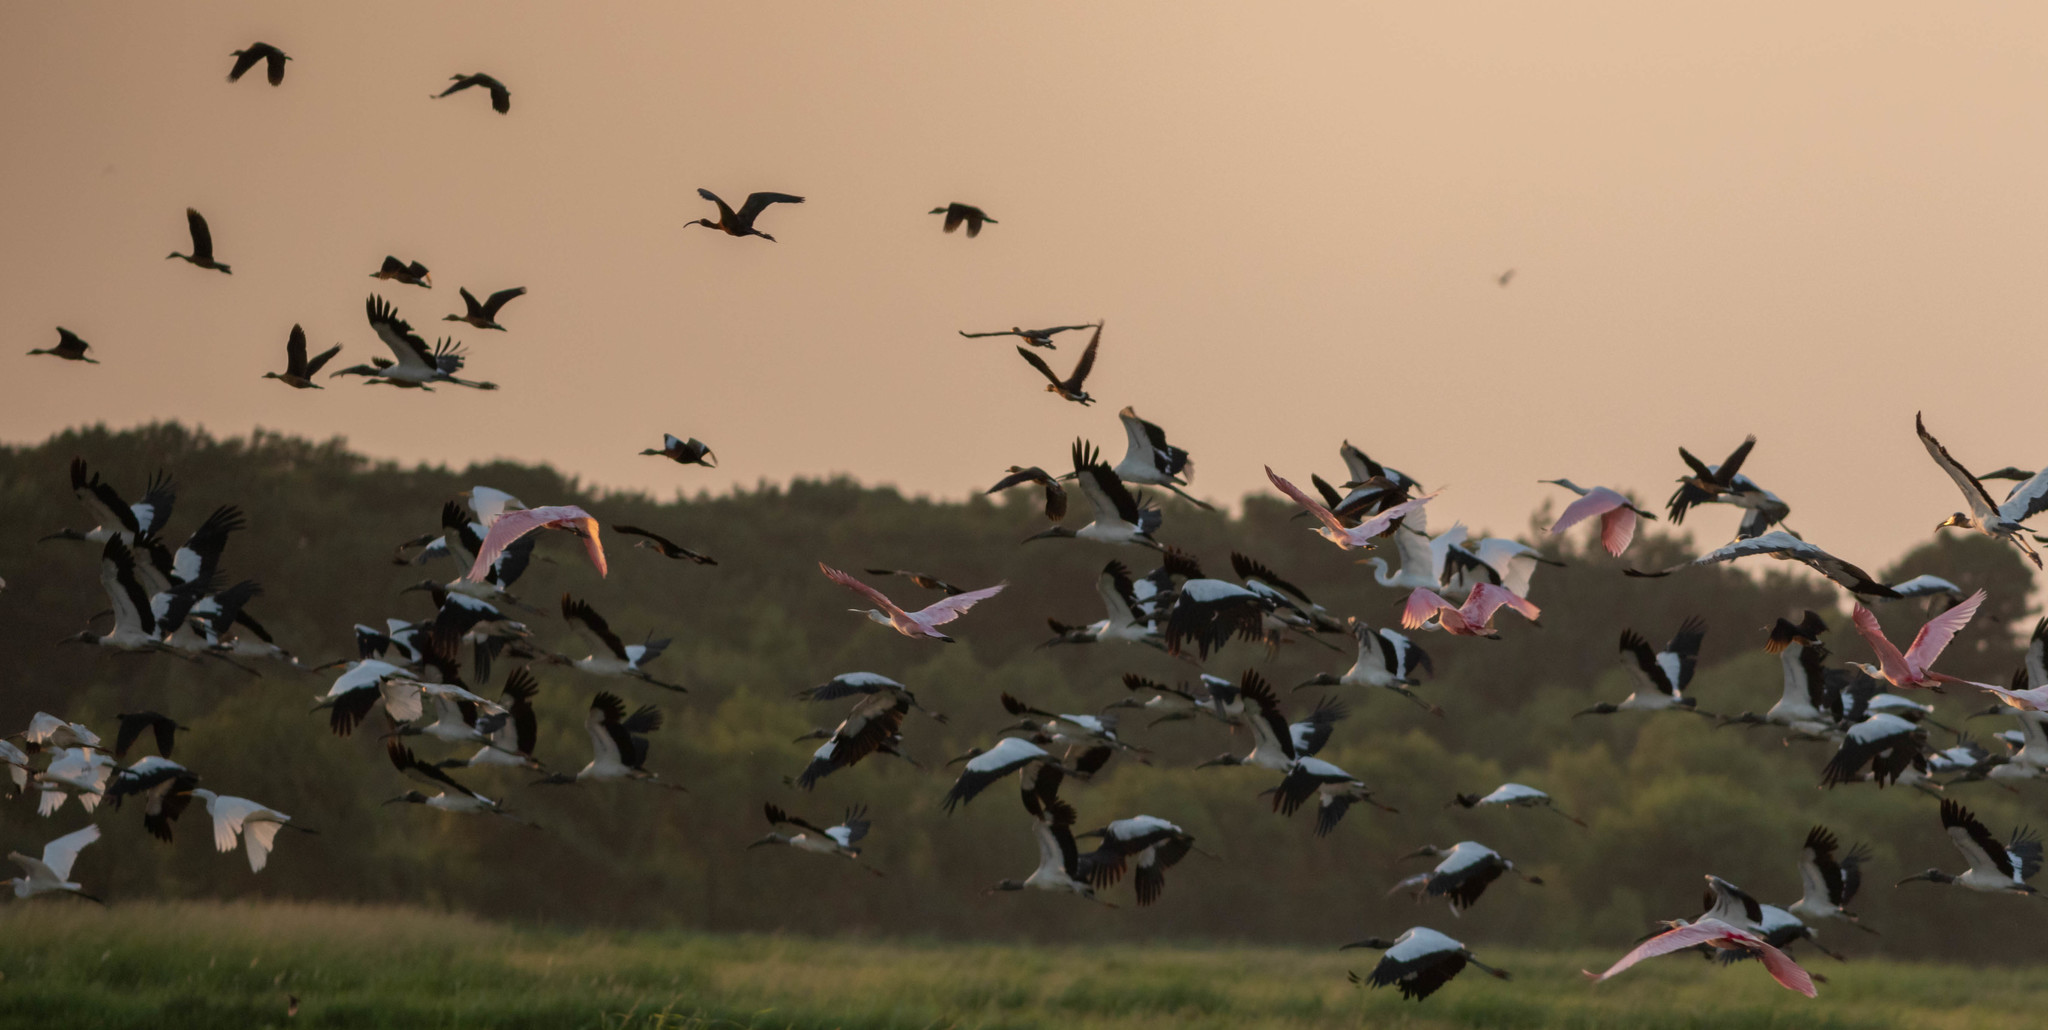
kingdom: Animalia
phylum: Chordata
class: Aves
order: Ciconiiformes
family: Ciconiidae
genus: Mycteria
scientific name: Mycteria americana
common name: Wood stork
